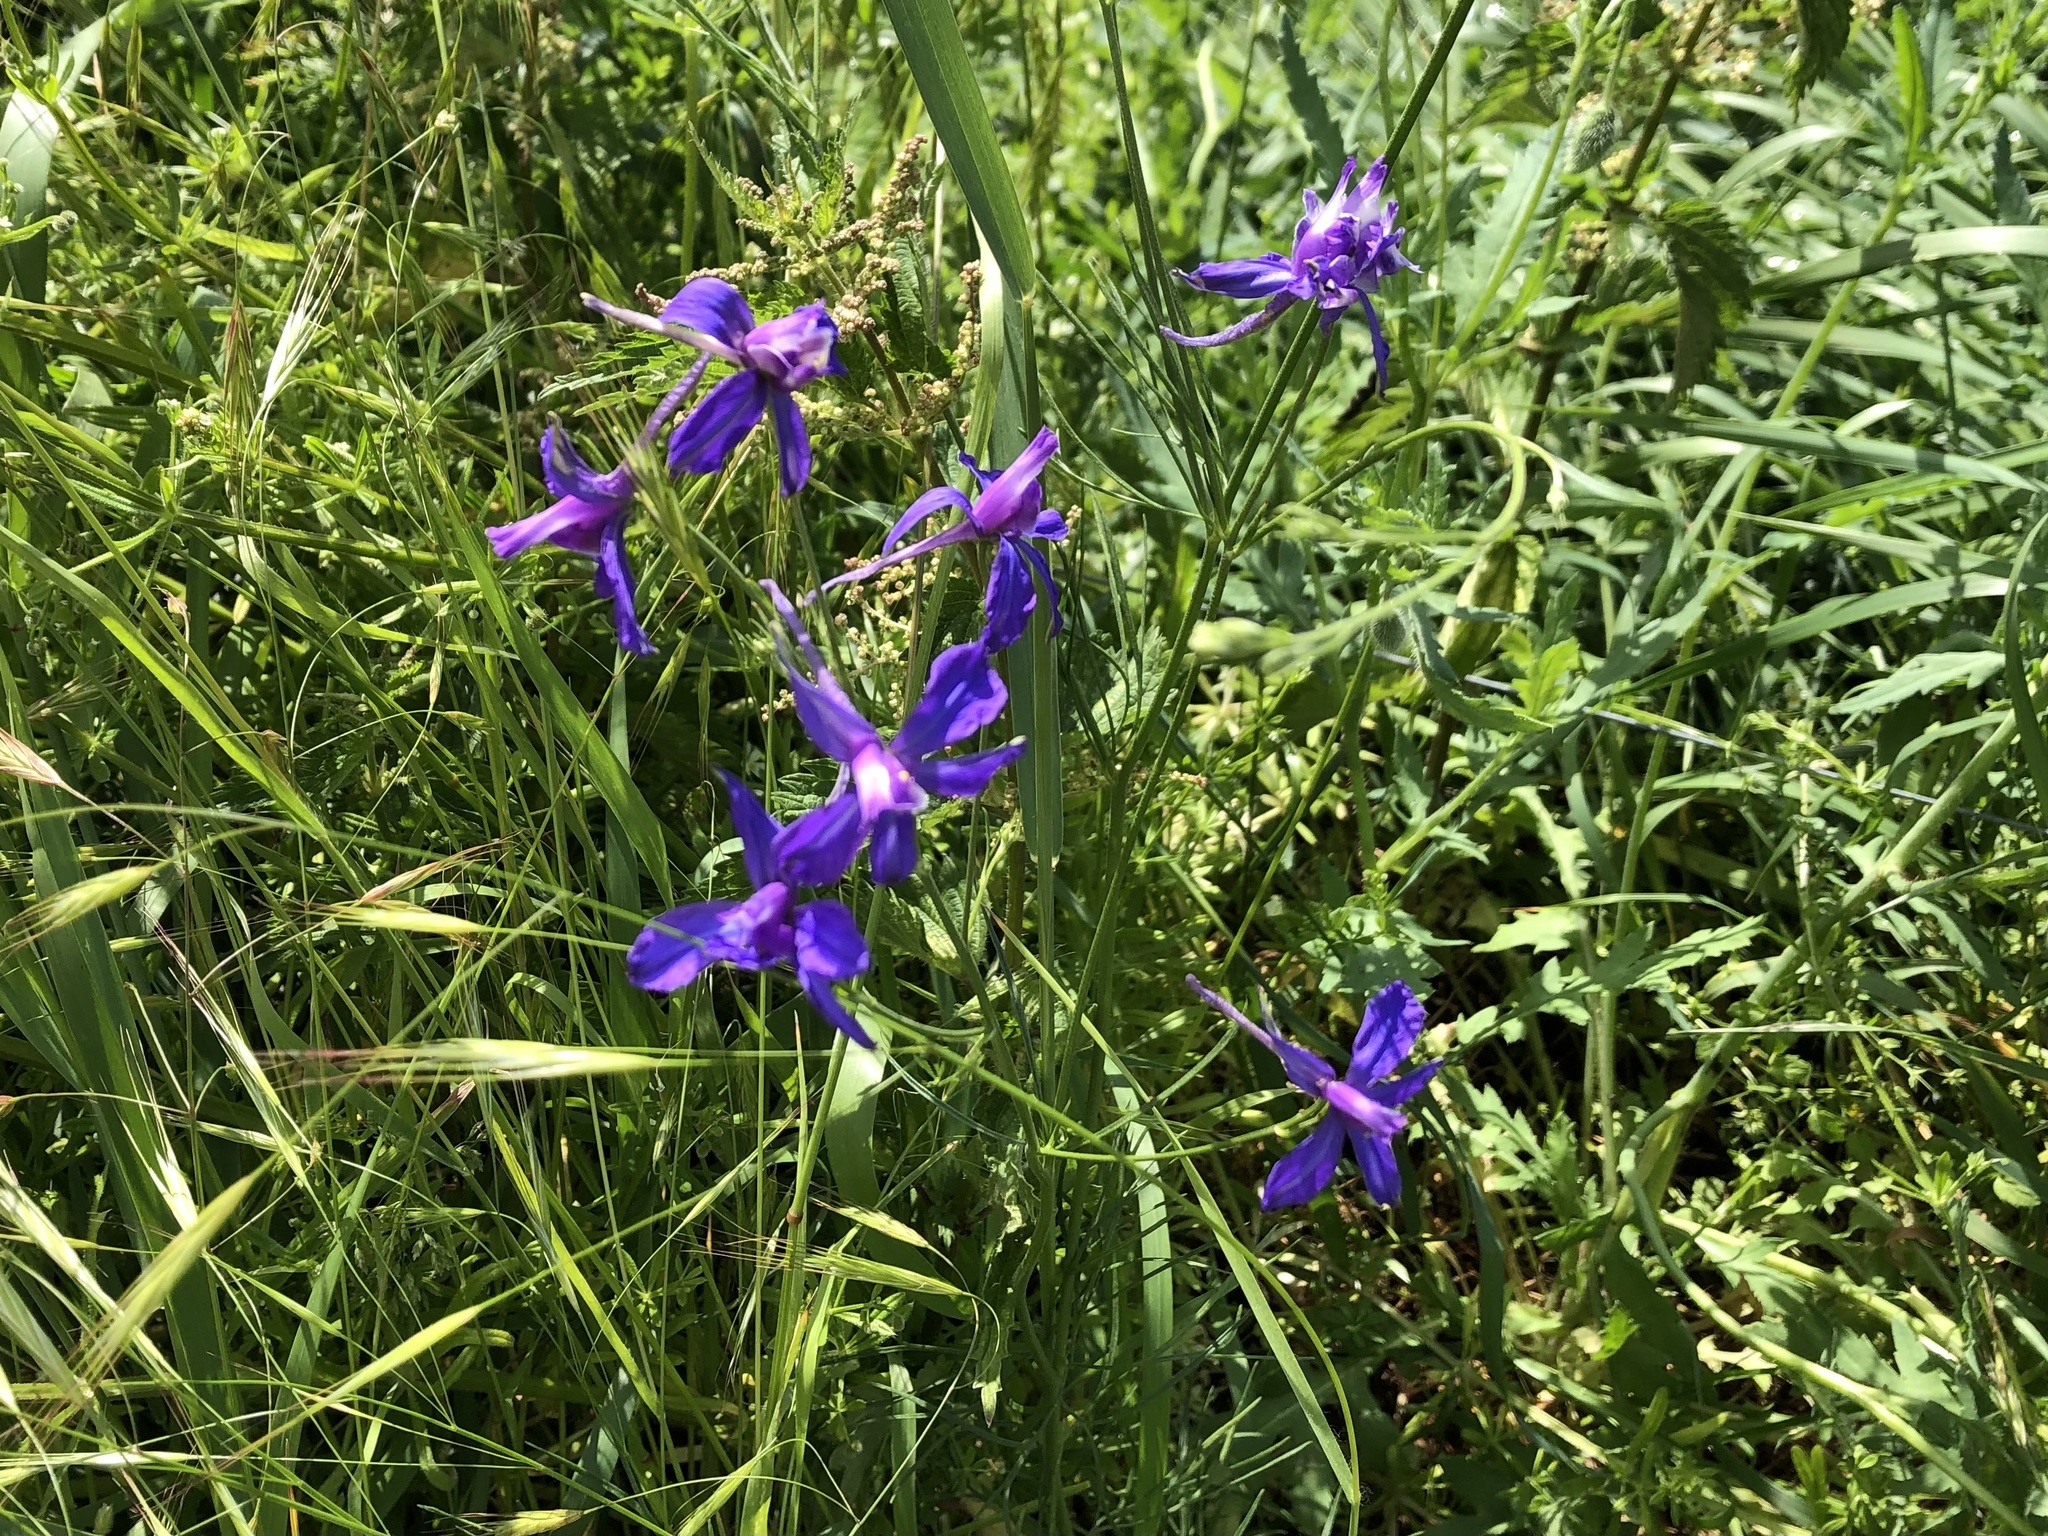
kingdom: Plantae
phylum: Tracheophyta
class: Magnoliopsida
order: Ranunculales
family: Ranunculaceae
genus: Delphinium
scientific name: Delphinium consolida
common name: Branching larkspur
